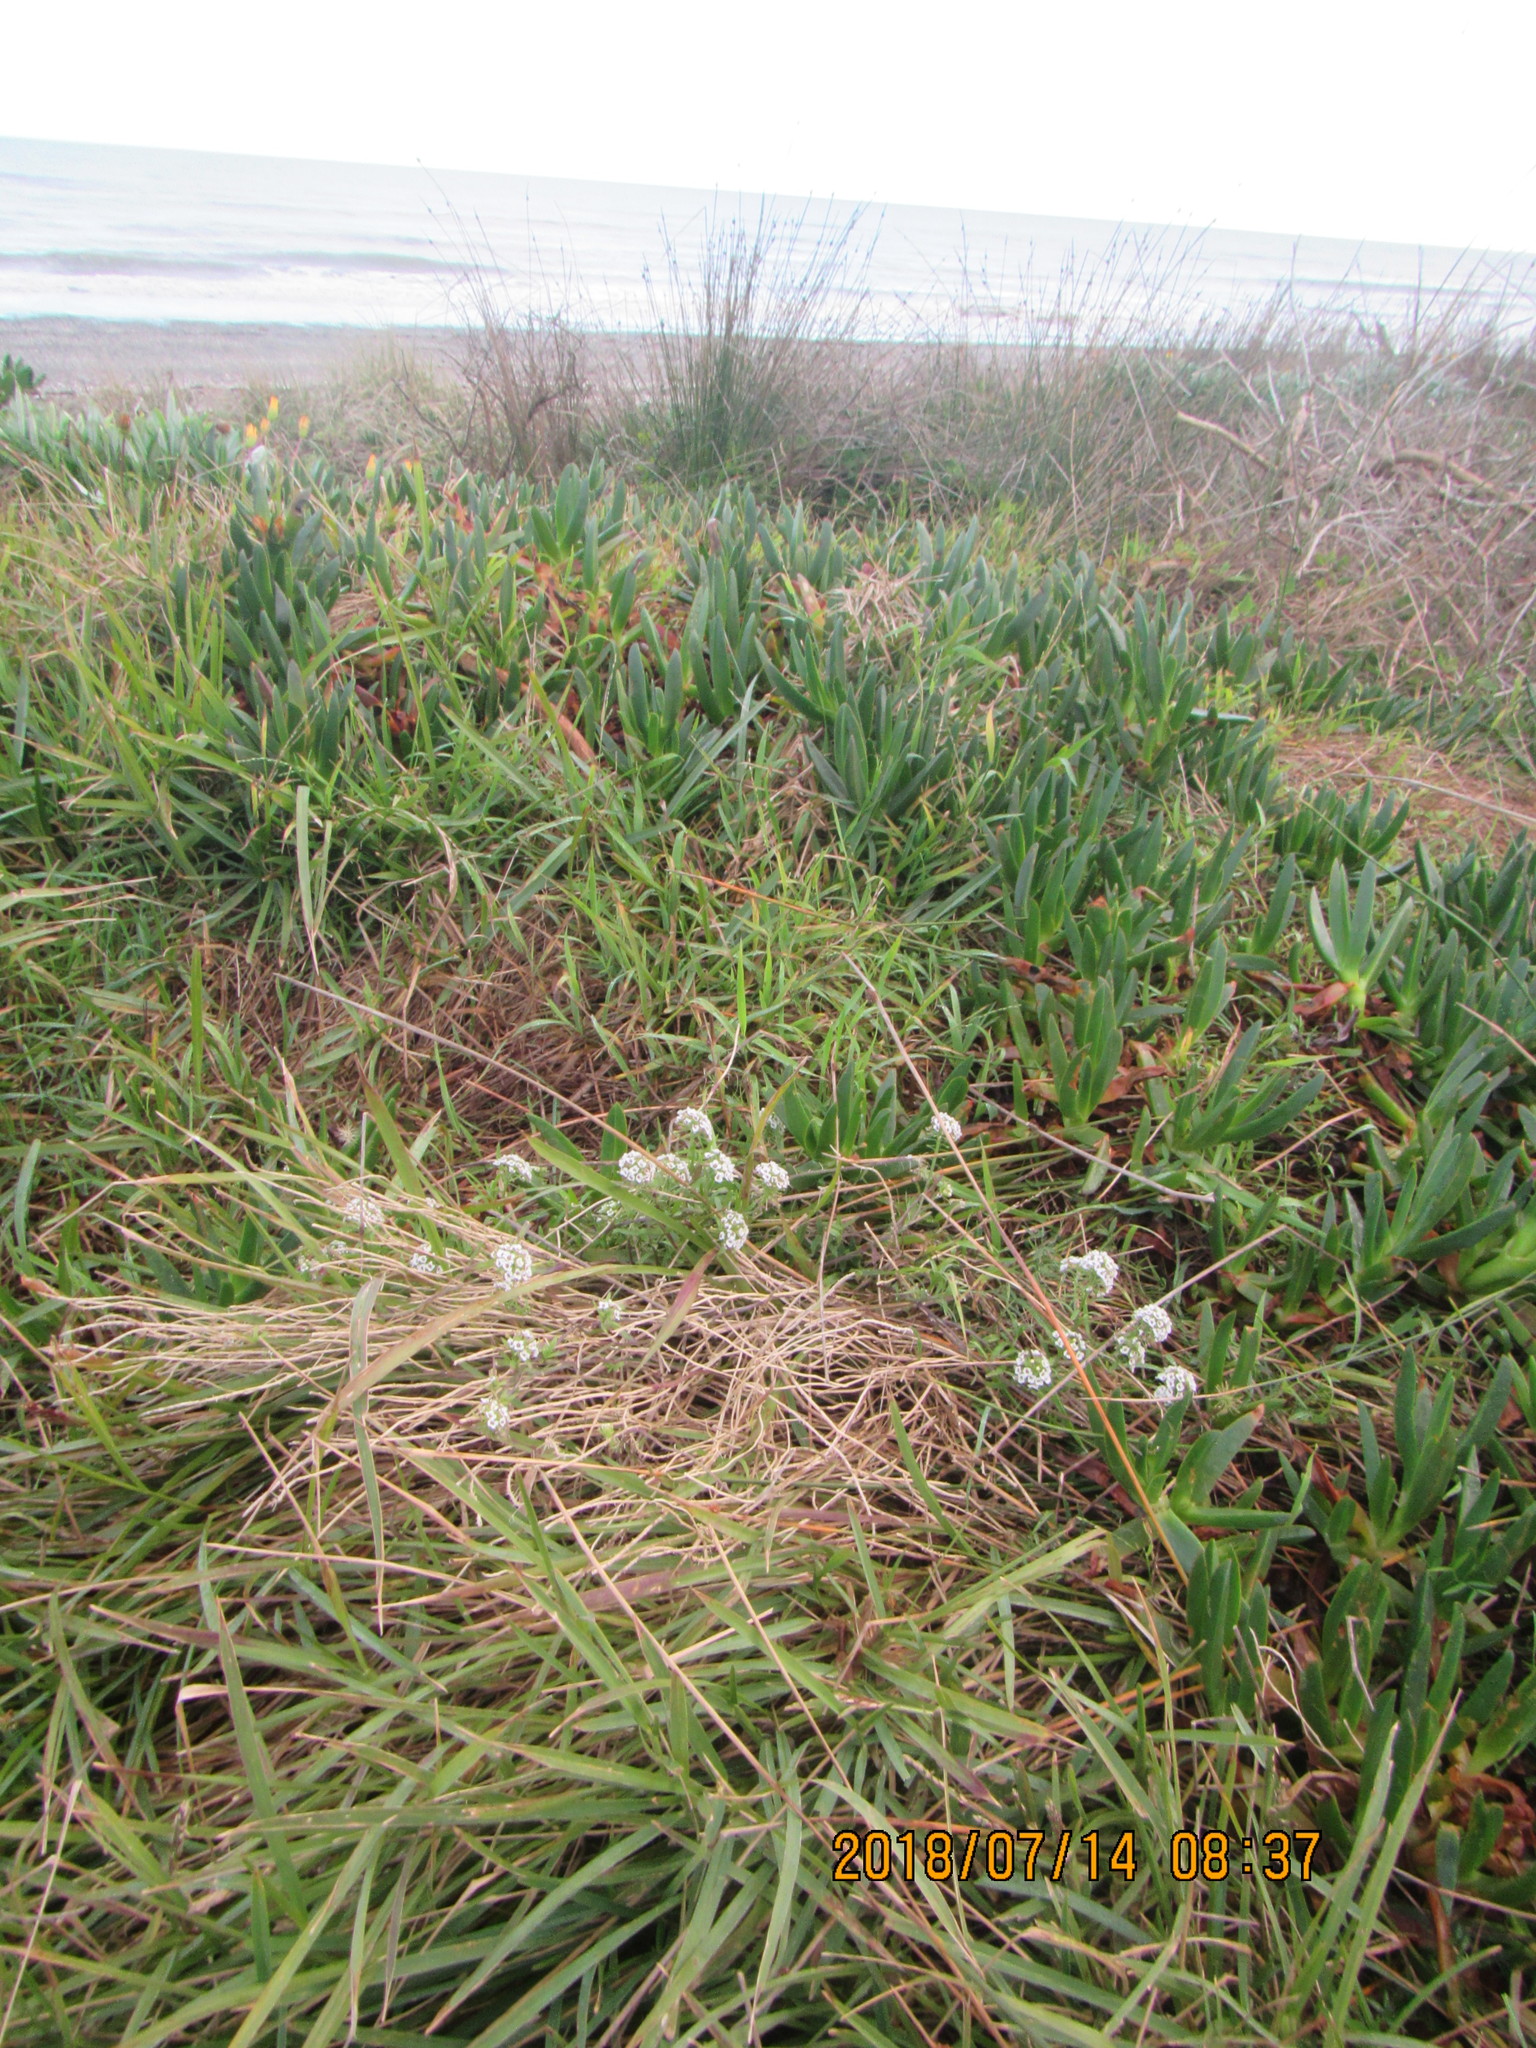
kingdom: Plantae
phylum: Tracheophyta
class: Magnoliopsida
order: Brassicales
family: Brassicaceae
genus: Lobularia
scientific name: Lobularia maritima
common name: Sweet alison
